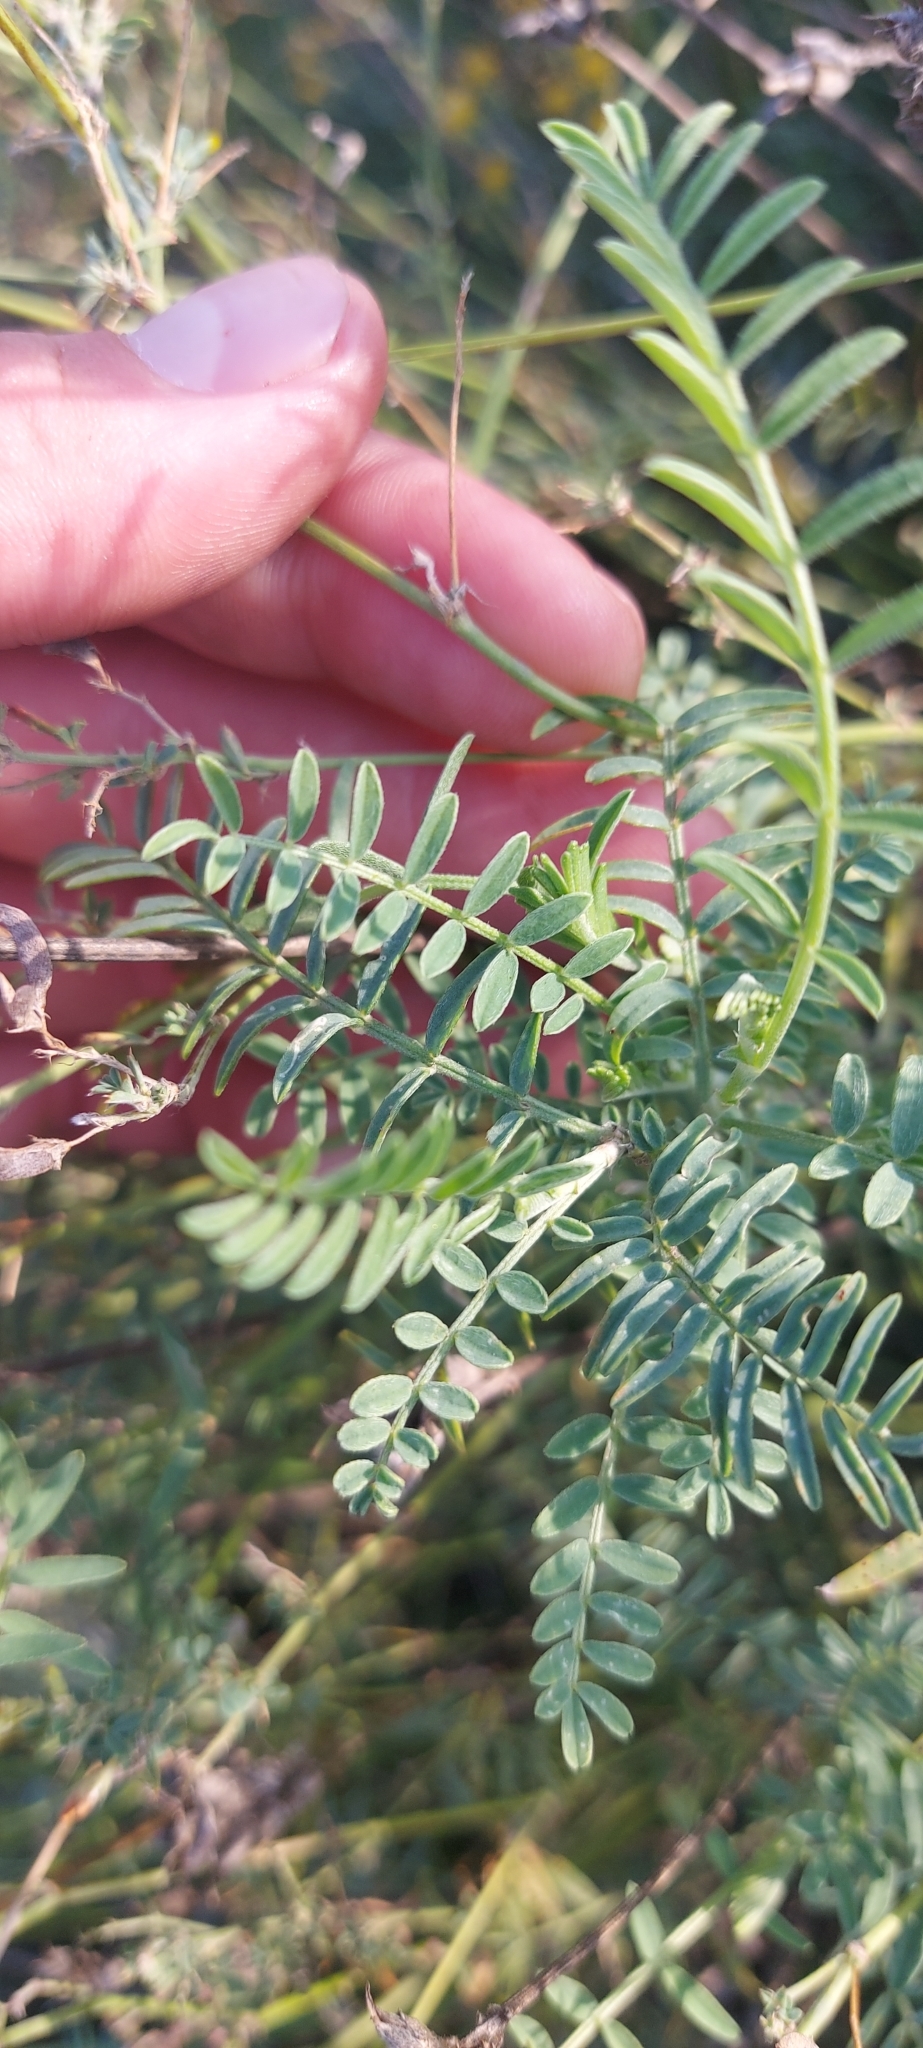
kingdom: Plantae
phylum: Tracheophyta
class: Magnoliopsida
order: Fabales
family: Fabaceae
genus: Astragalus
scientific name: Astragalus onobrychis
